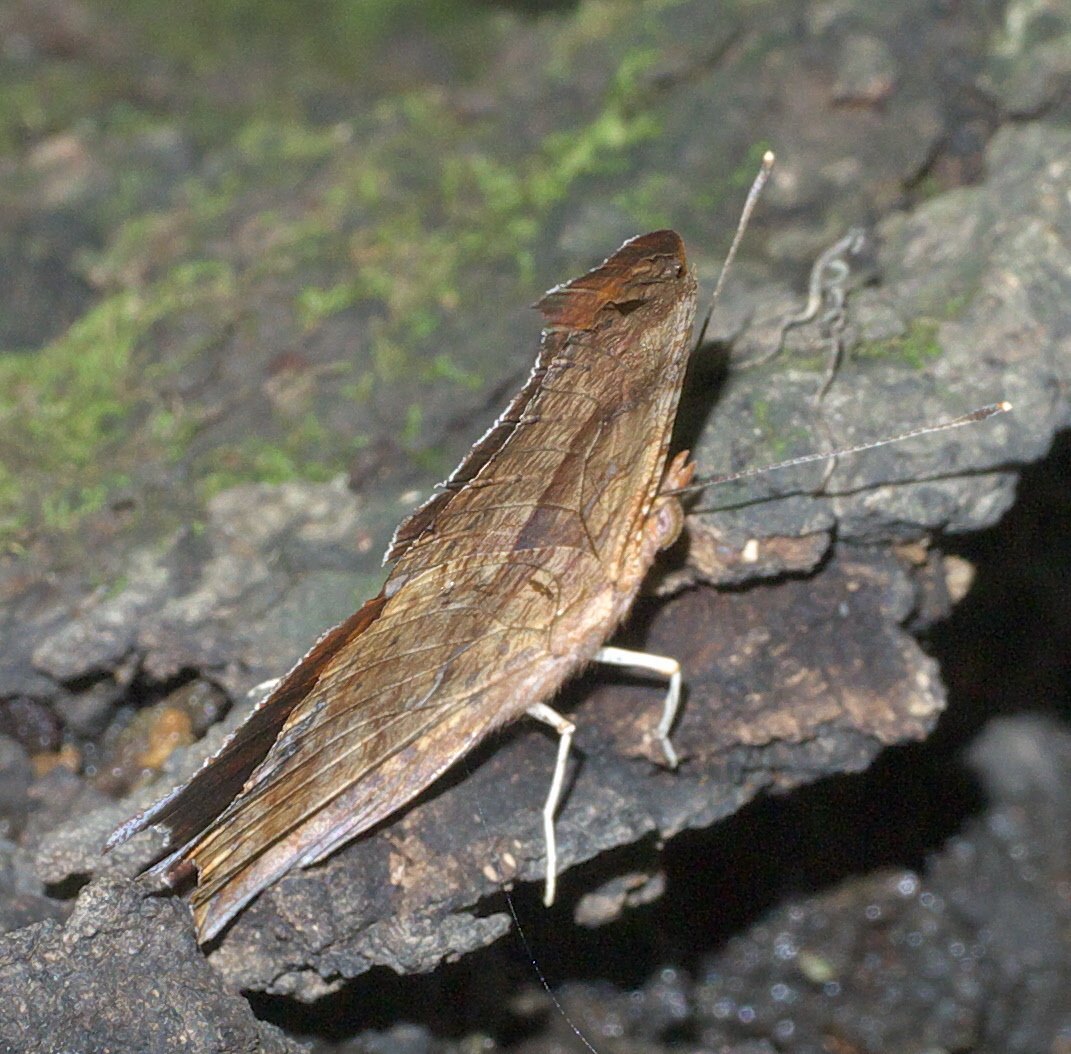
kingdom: Animalia
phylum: Arthropoda
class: Insecta
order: Lepidoptera
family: Nymphalidae
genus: Polygonia
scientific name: Polygonia interrogationis
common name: Question mark
